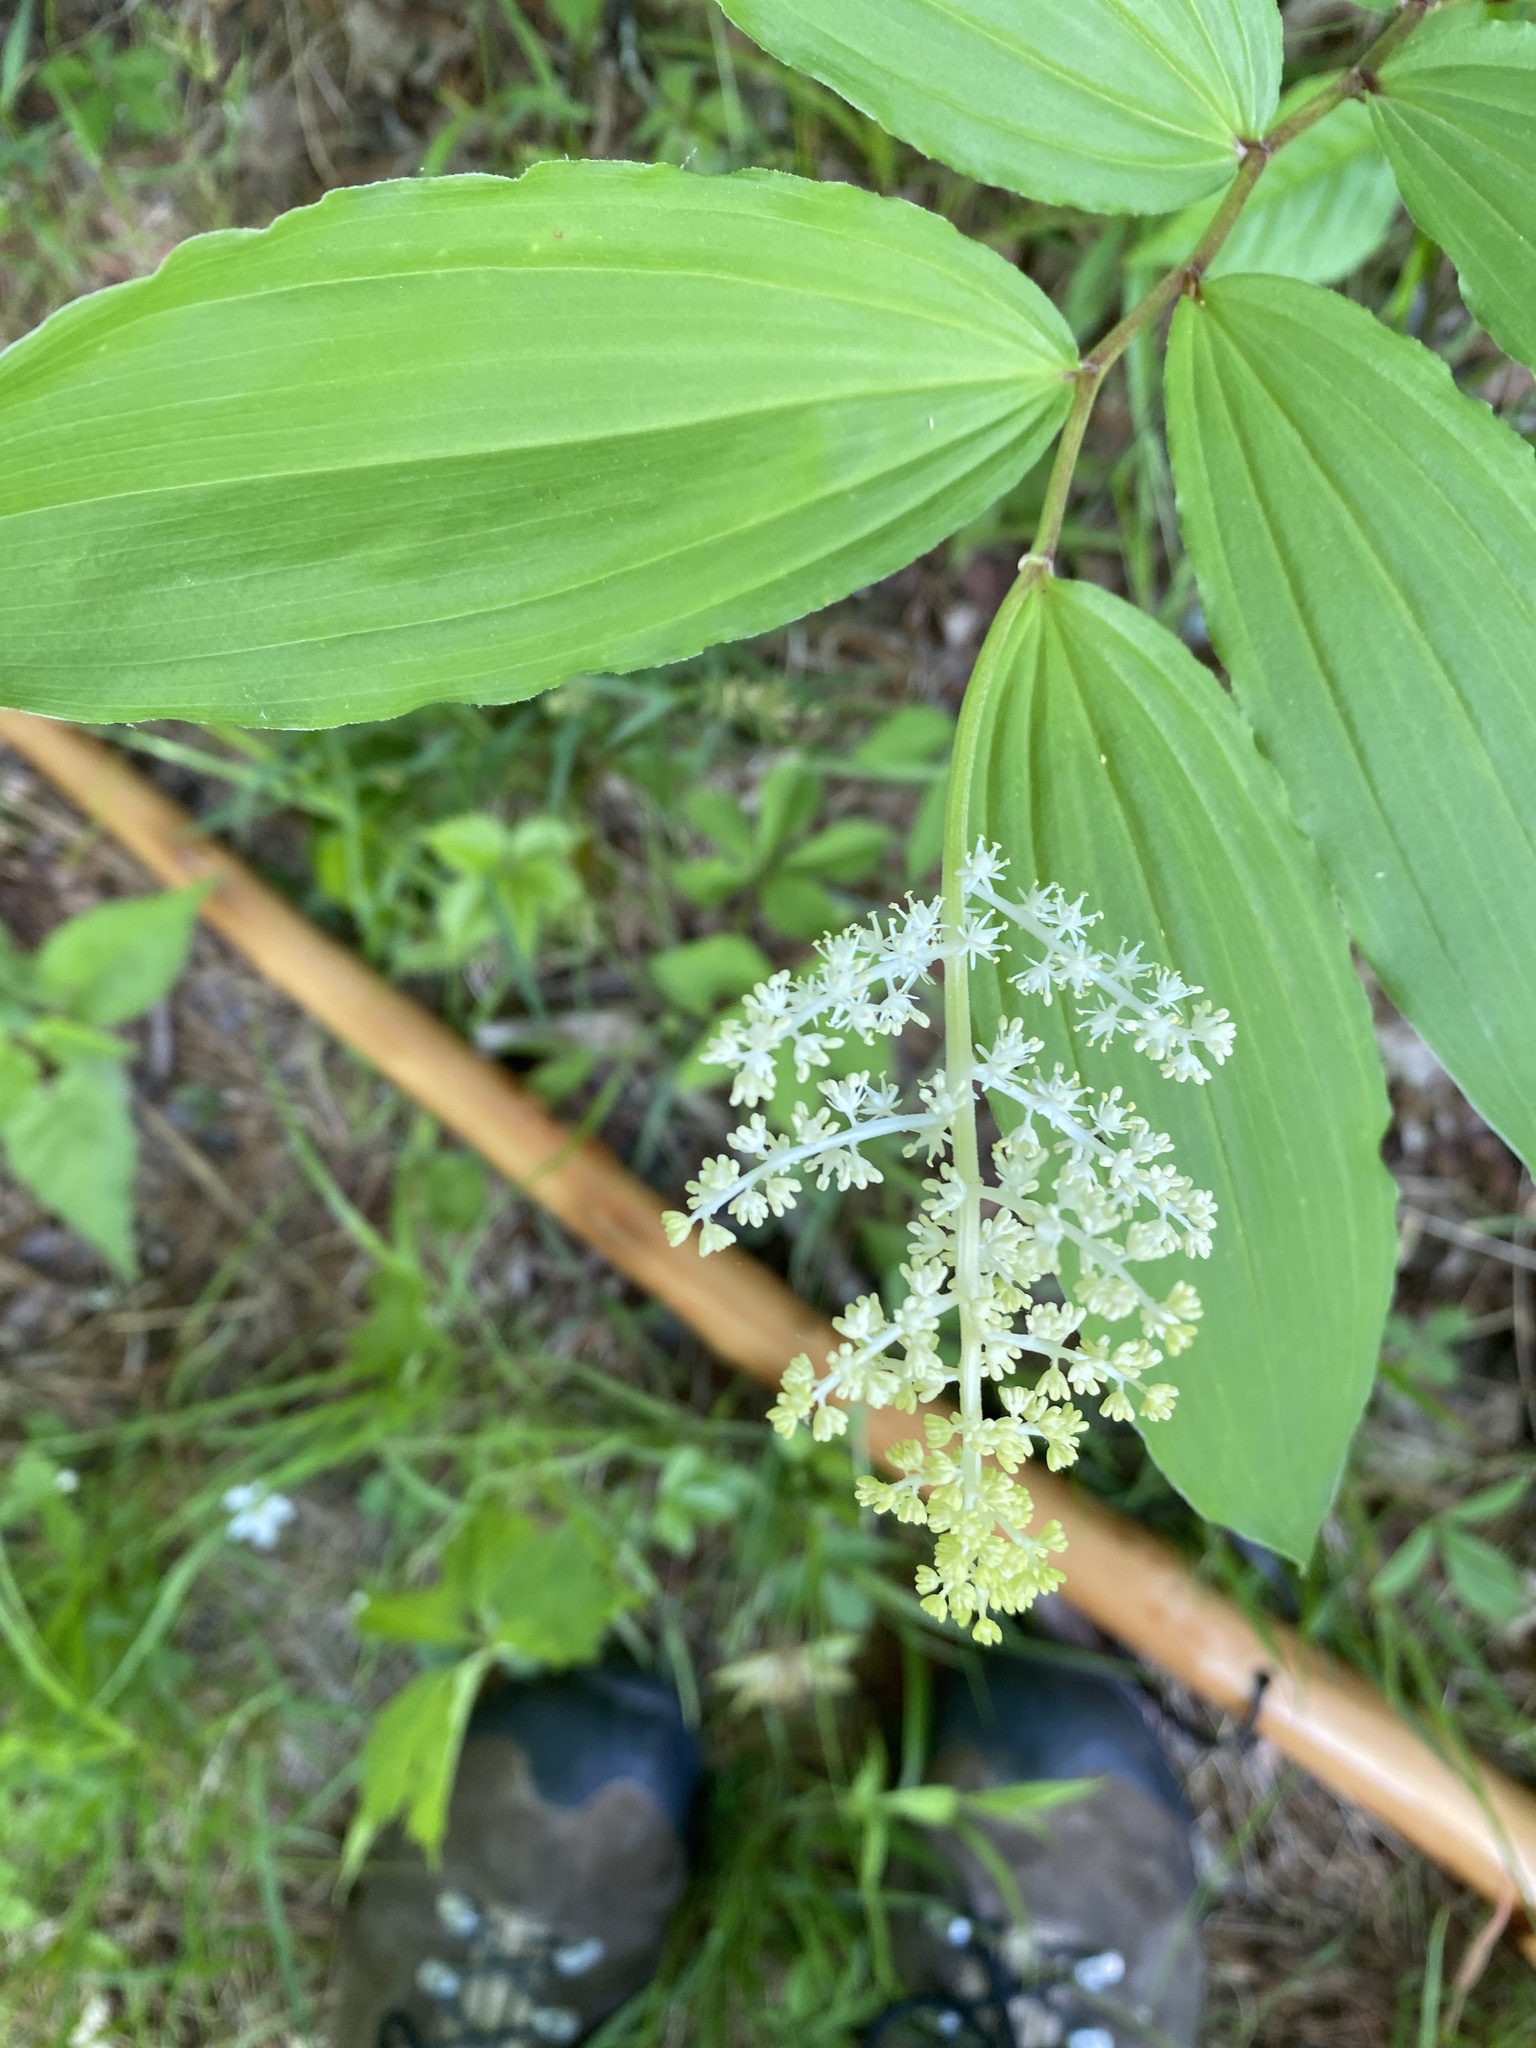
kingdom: Plantae
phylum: Tracheophyta
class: Liliopsida
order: Asparagales
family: Asparagaceae
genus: Maianthemum
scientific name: Maianthemum racemosum
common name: False spikenard
